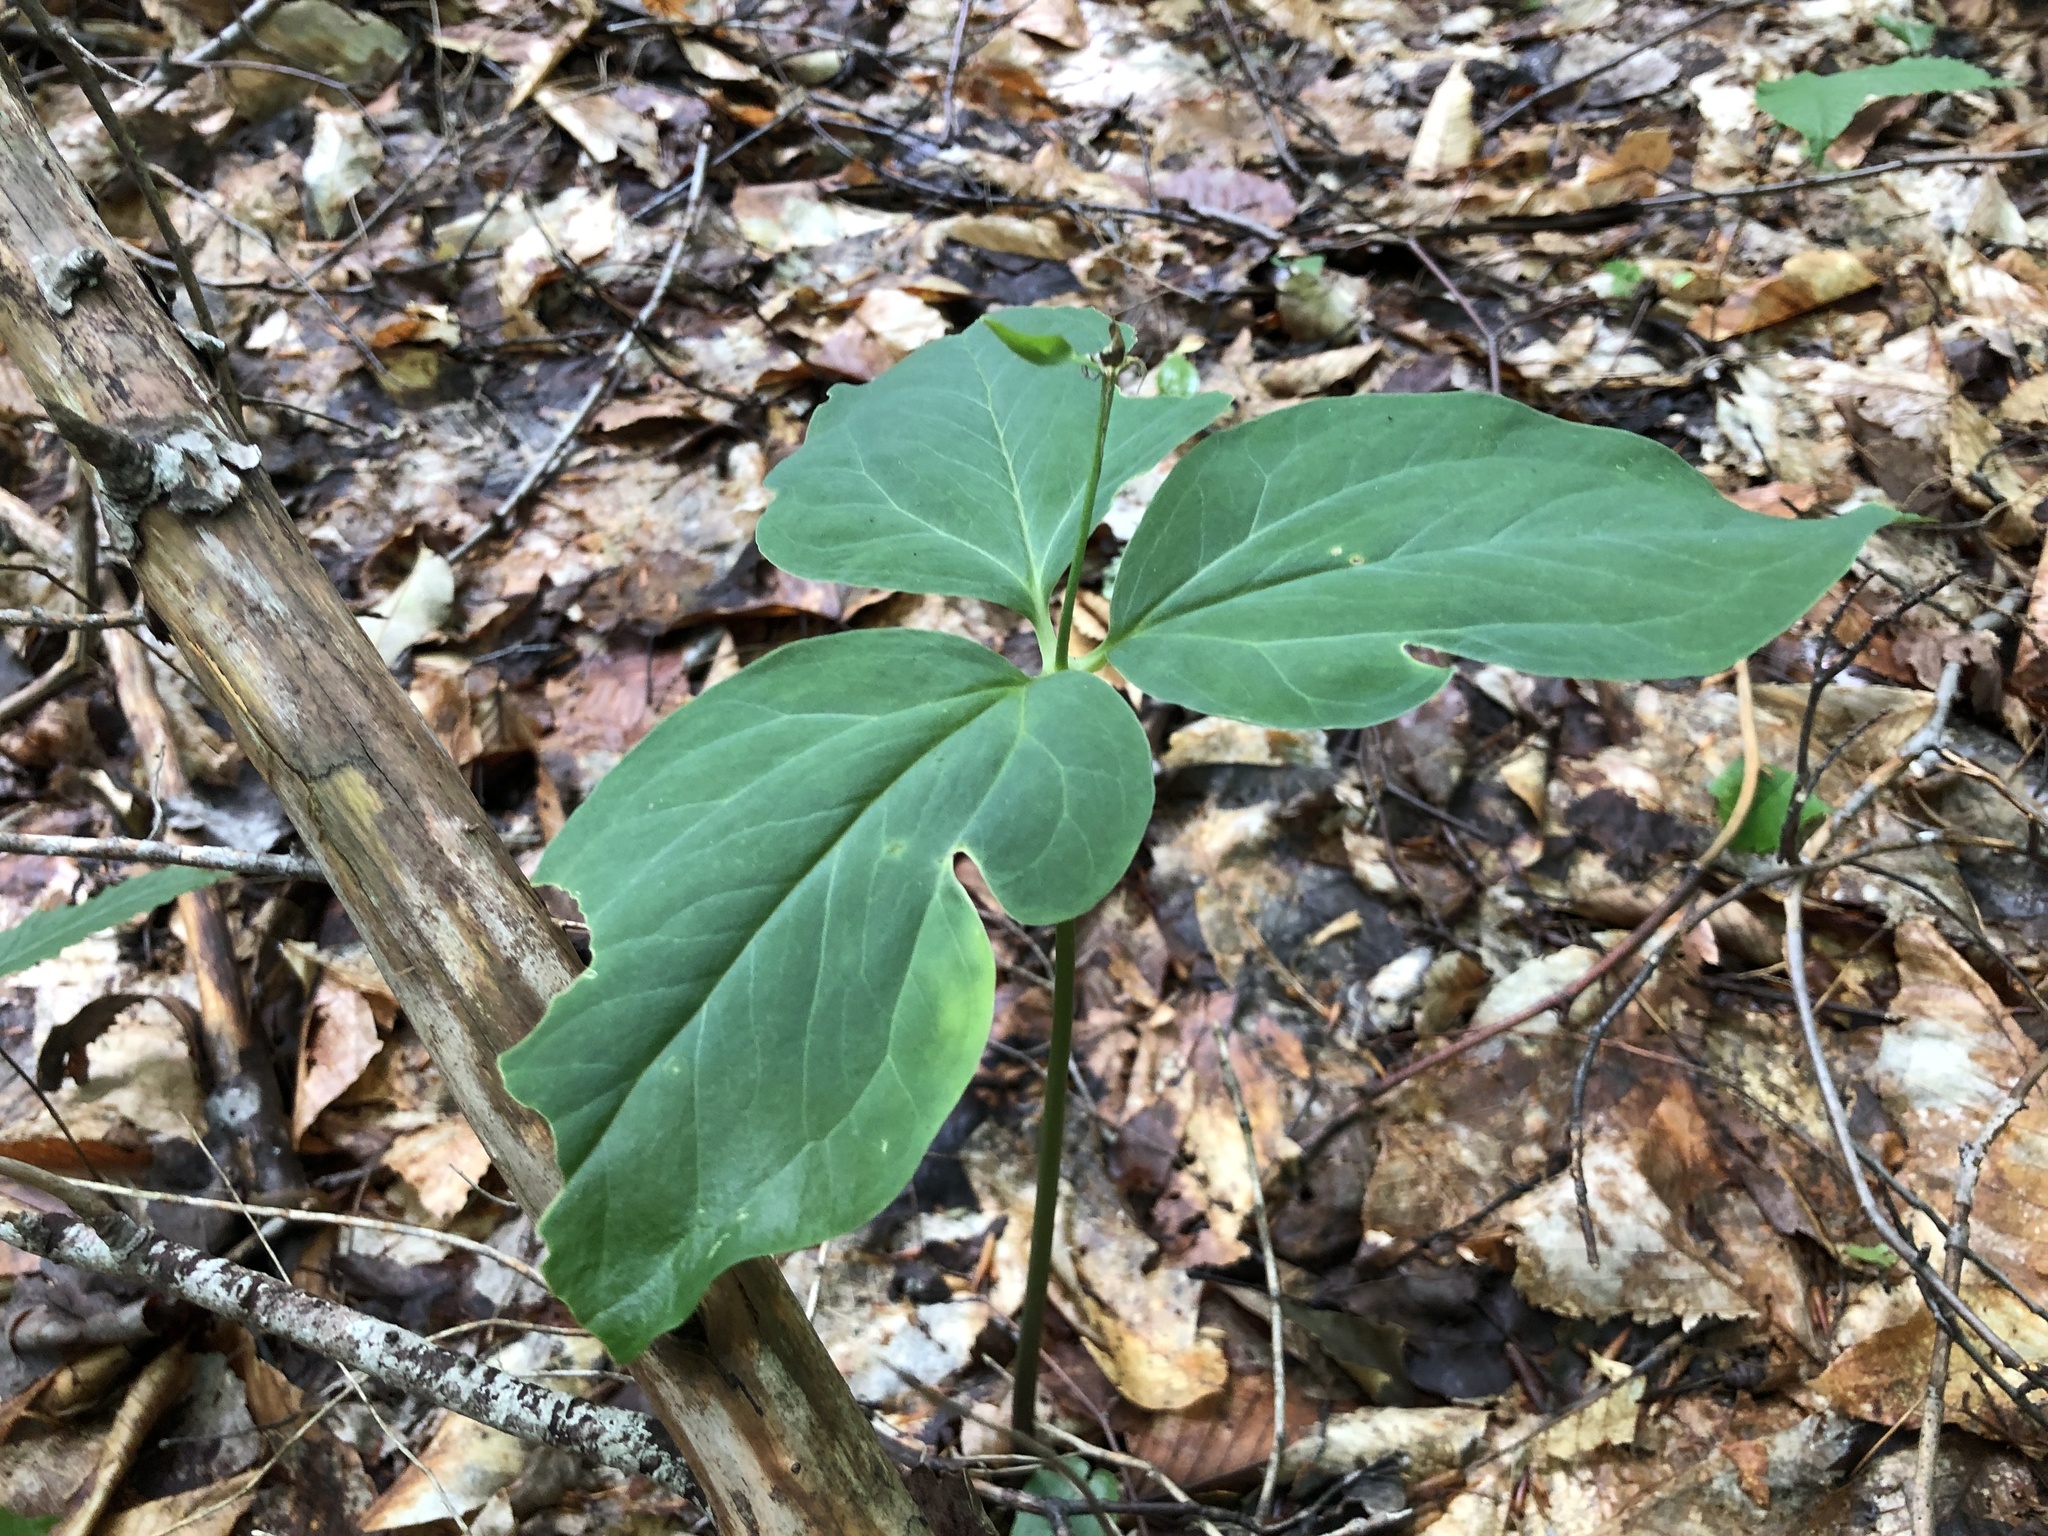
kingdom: Plantae
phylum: Tracheophyta
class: Liliopsida
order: Liliales
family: Melanthiaceae
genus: Trillium
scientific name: Trillium undulatum
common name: Paint trillium
